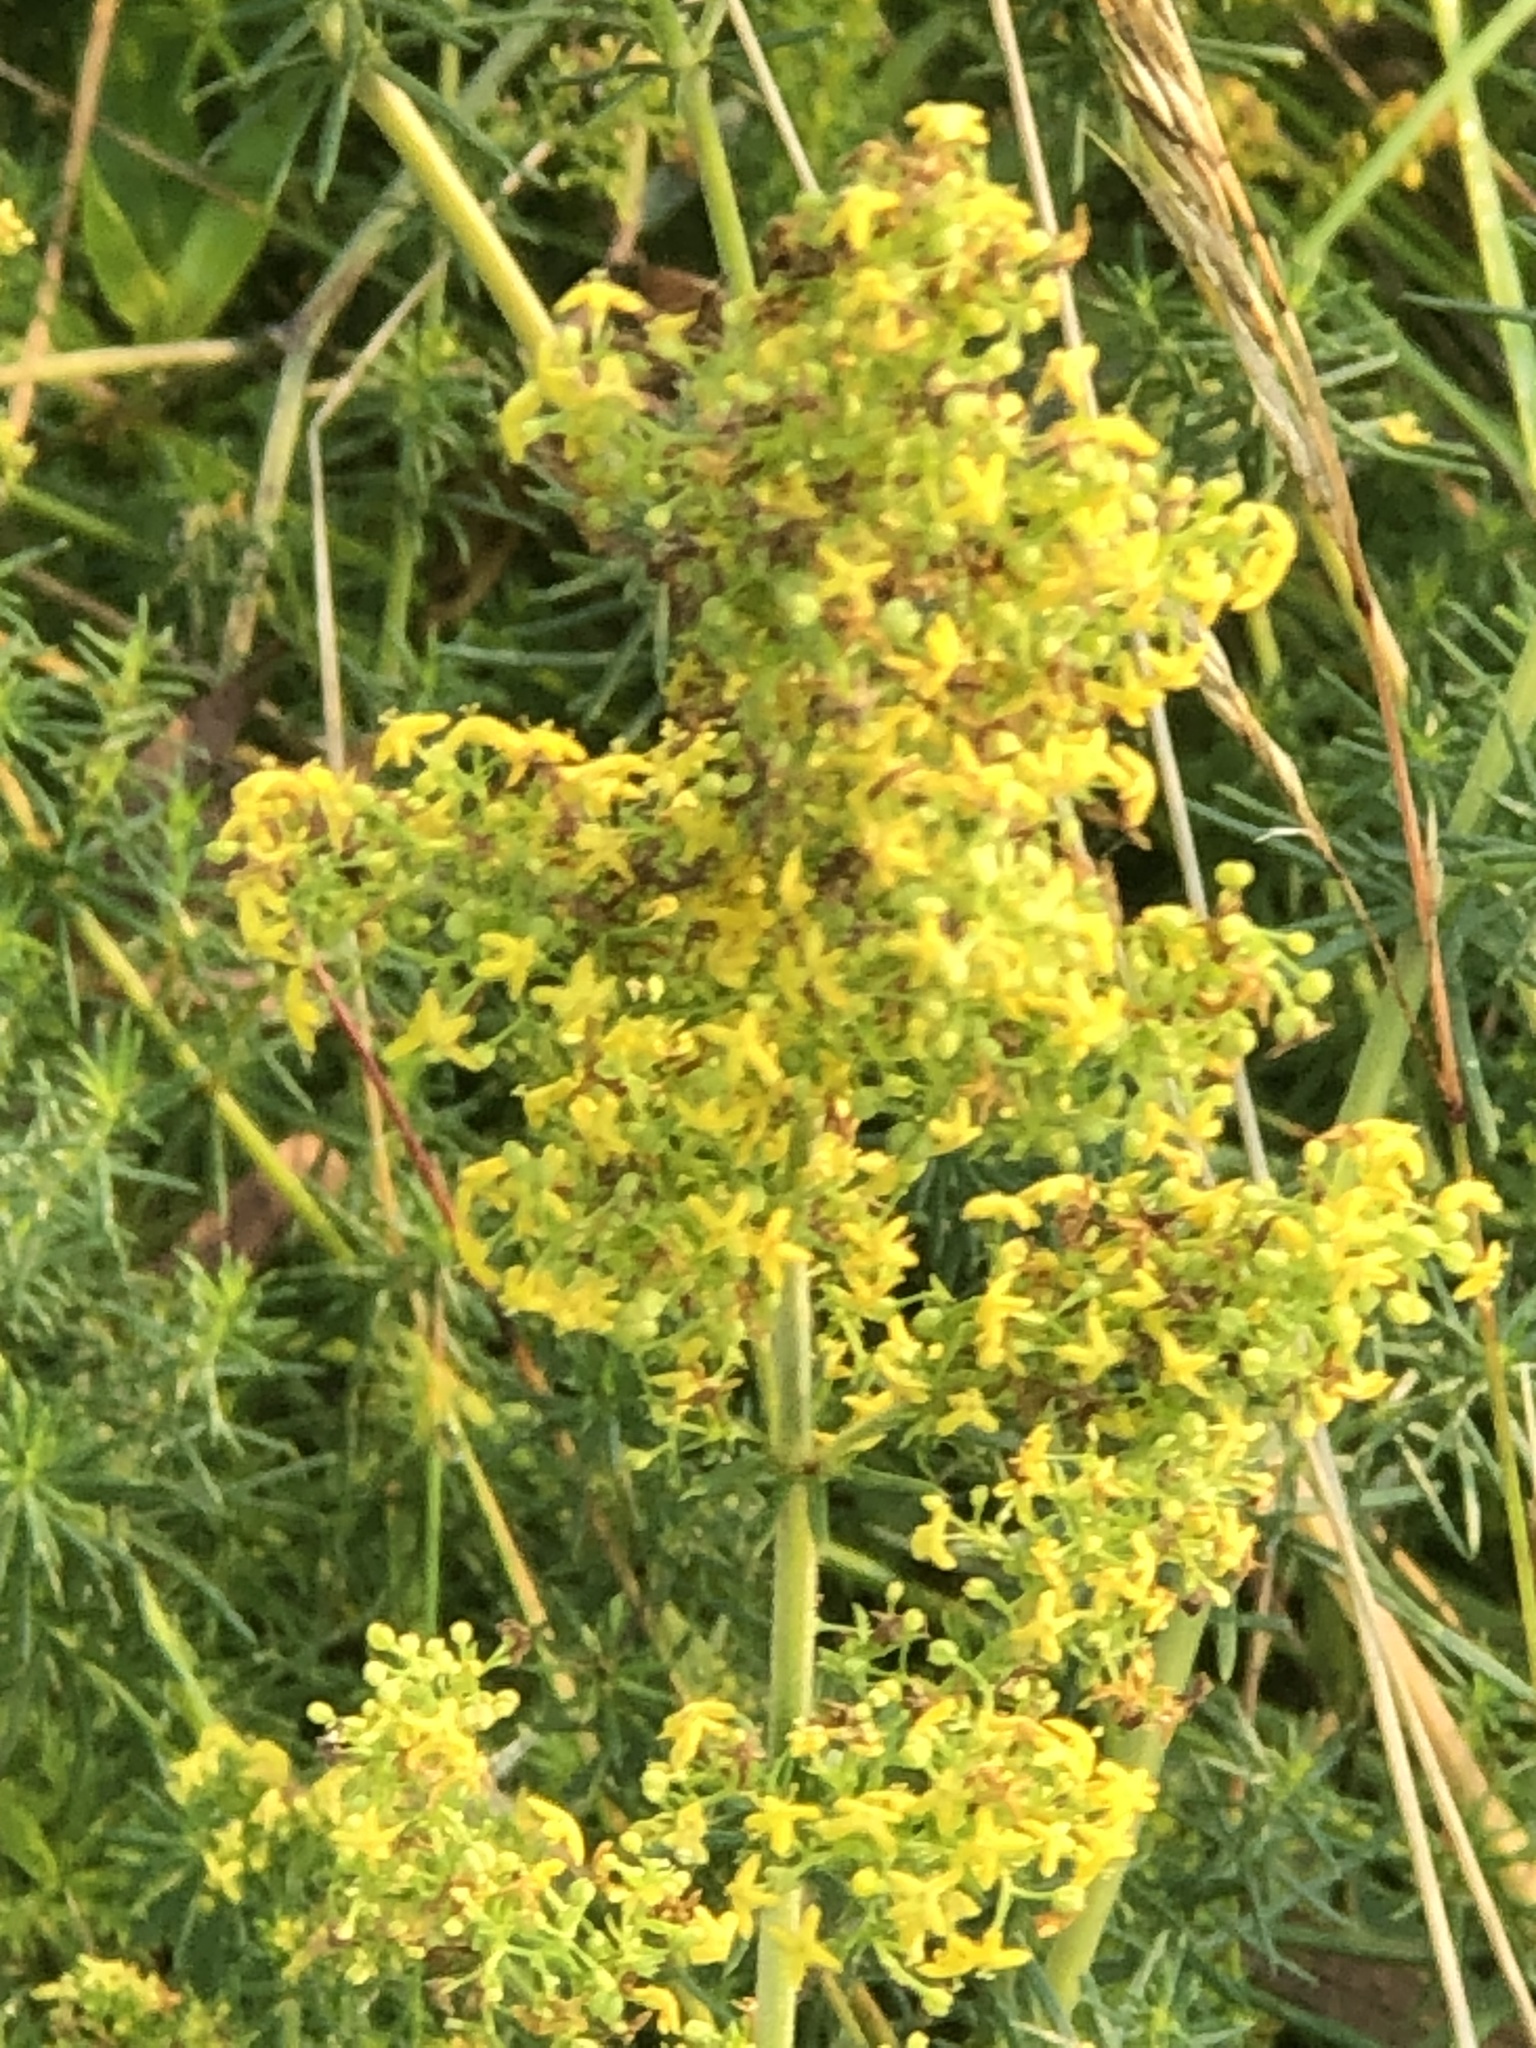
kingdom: Plantae
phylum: Tracheophyta
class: Magnoliopsida
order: Gentianales
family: Rubiaceae
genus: Galium
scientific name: Galium verum
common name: Lady's bedstraw
